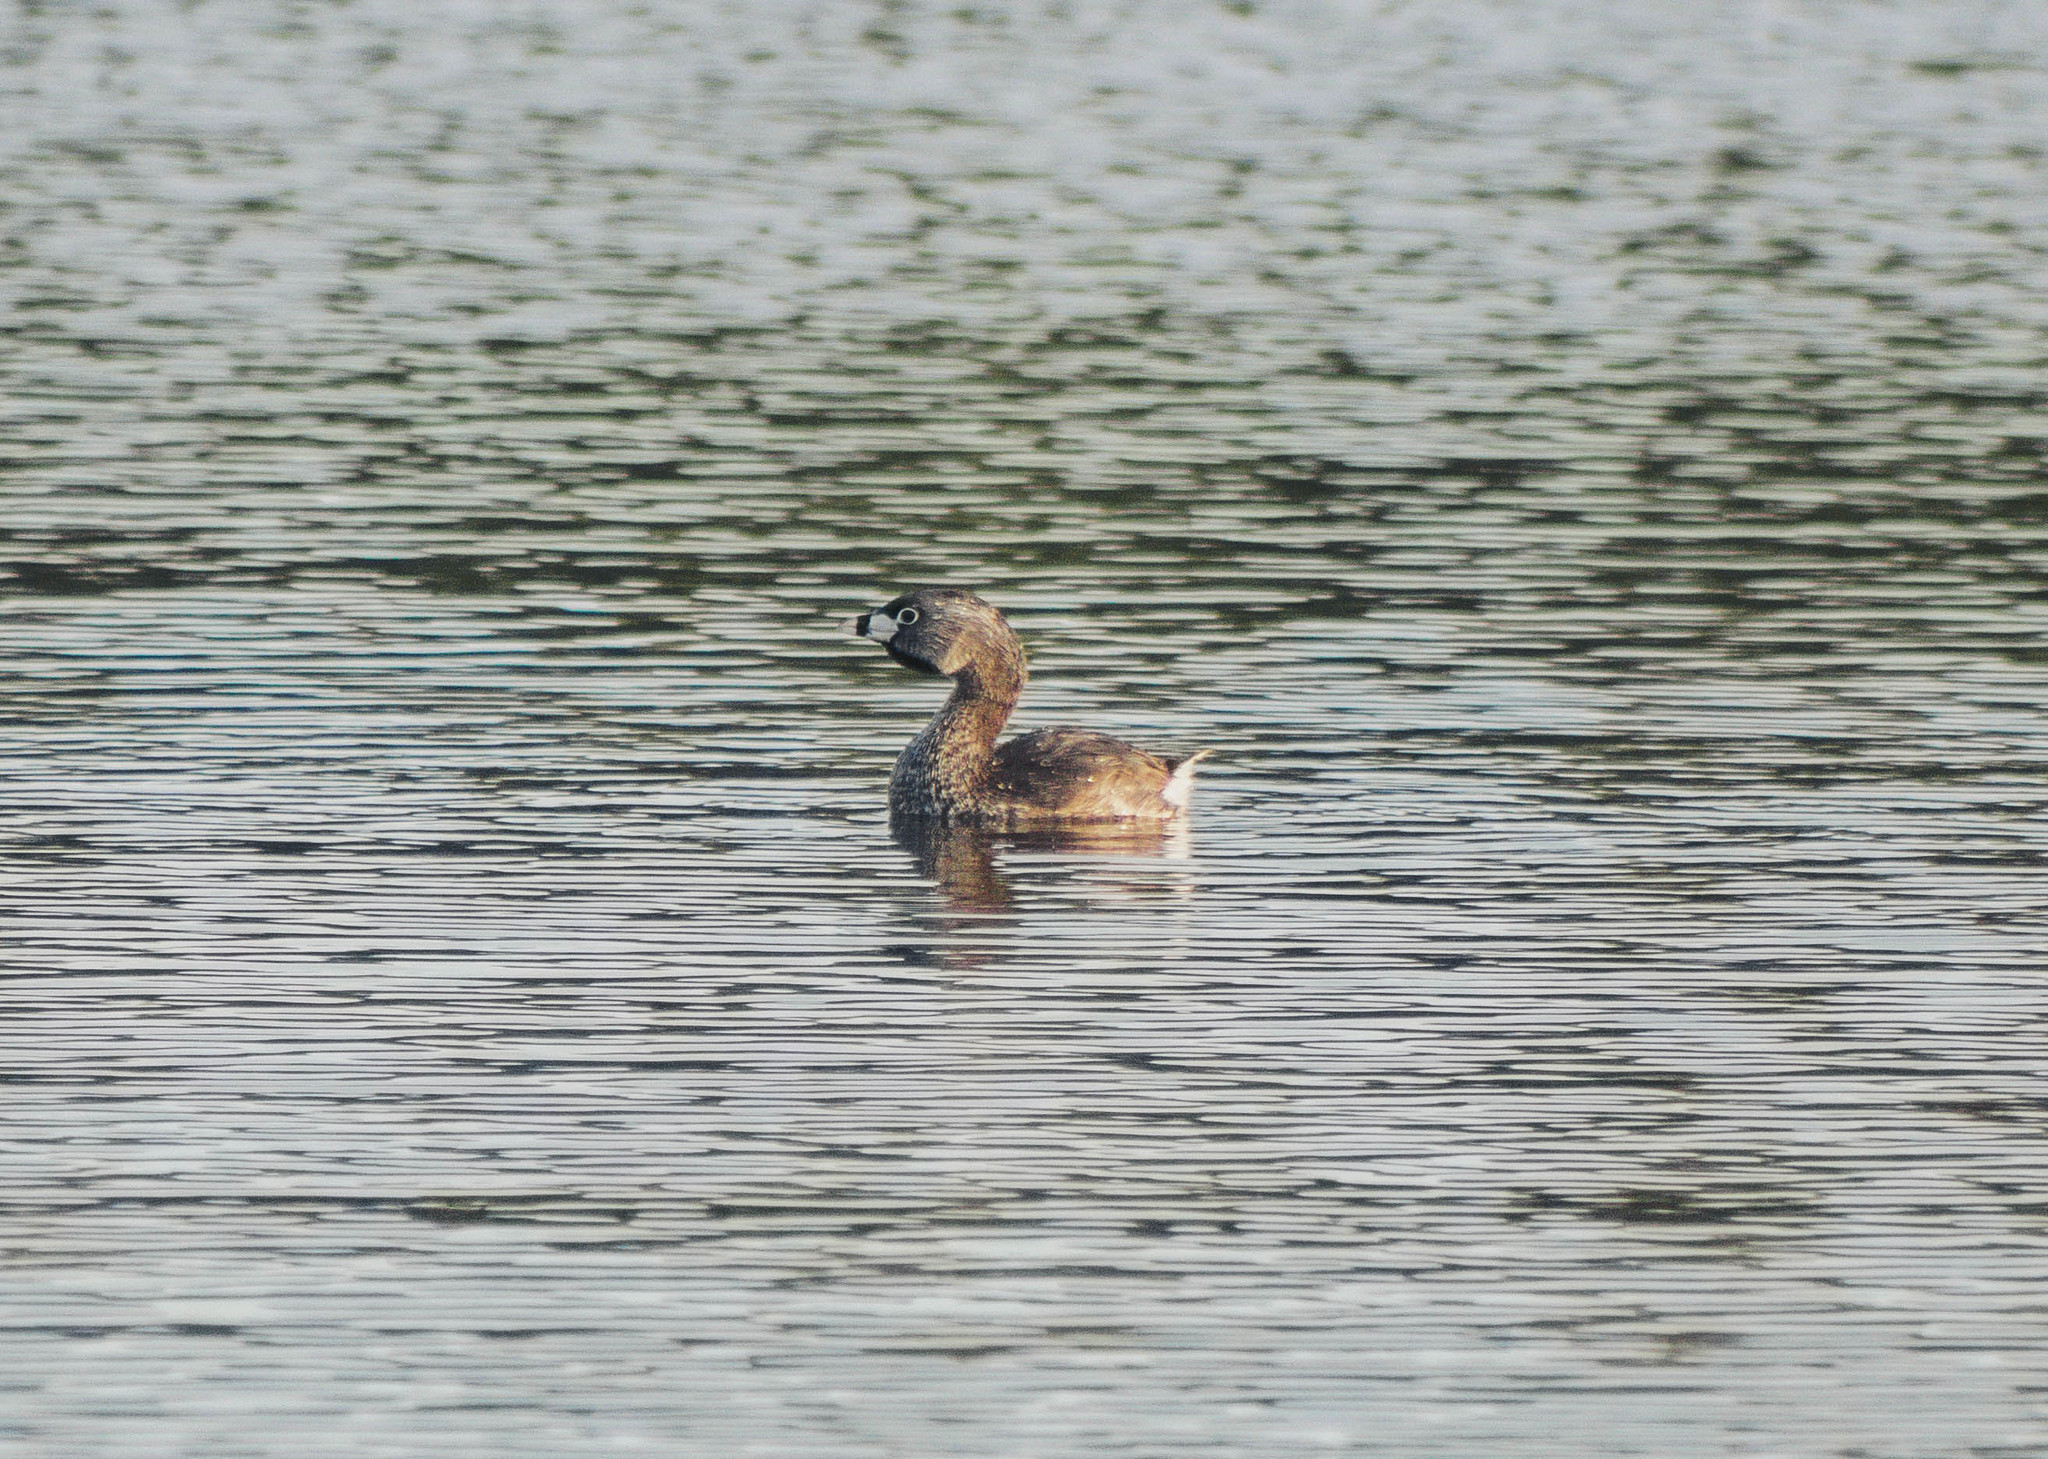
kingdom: Animalia
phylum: Chordata
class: Aves
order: Podicipediformes
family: Podicipedidae
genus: Podilymbus
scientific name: Podilymbus podiceps
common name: Pied-billed grebe
